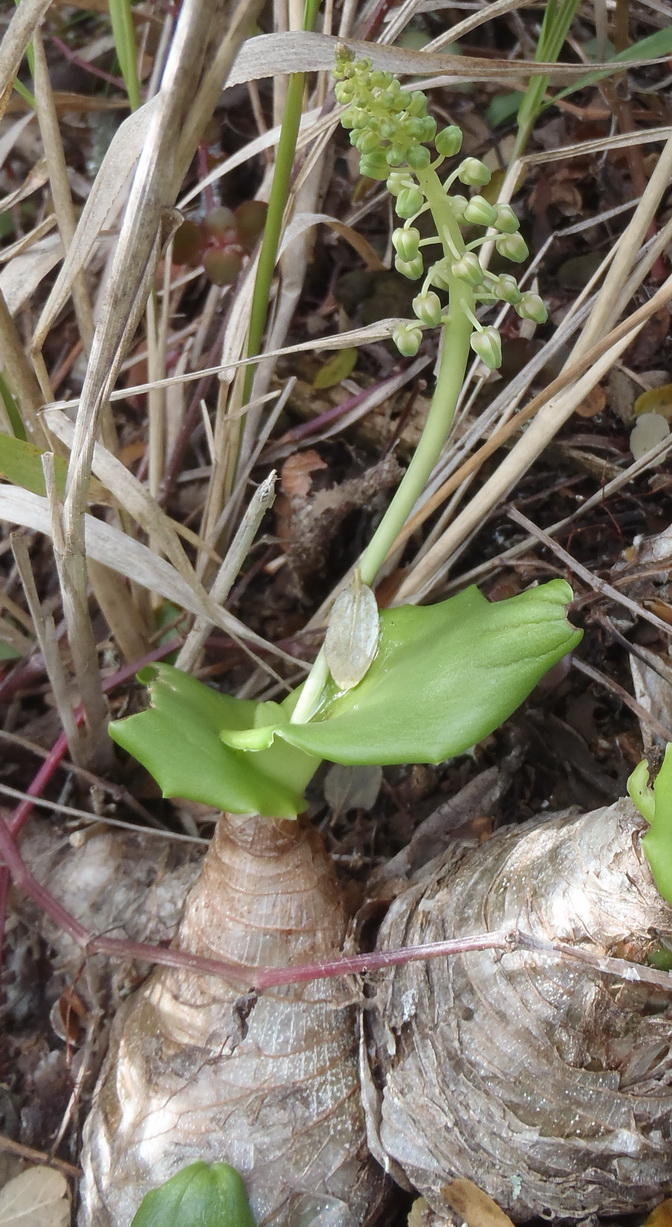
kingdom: Plantae
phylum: Tracheophyta
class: Liliopsida
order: Asparagales
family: Asparagaceae
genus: Ledebouria
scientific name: Ledebouria nitida
